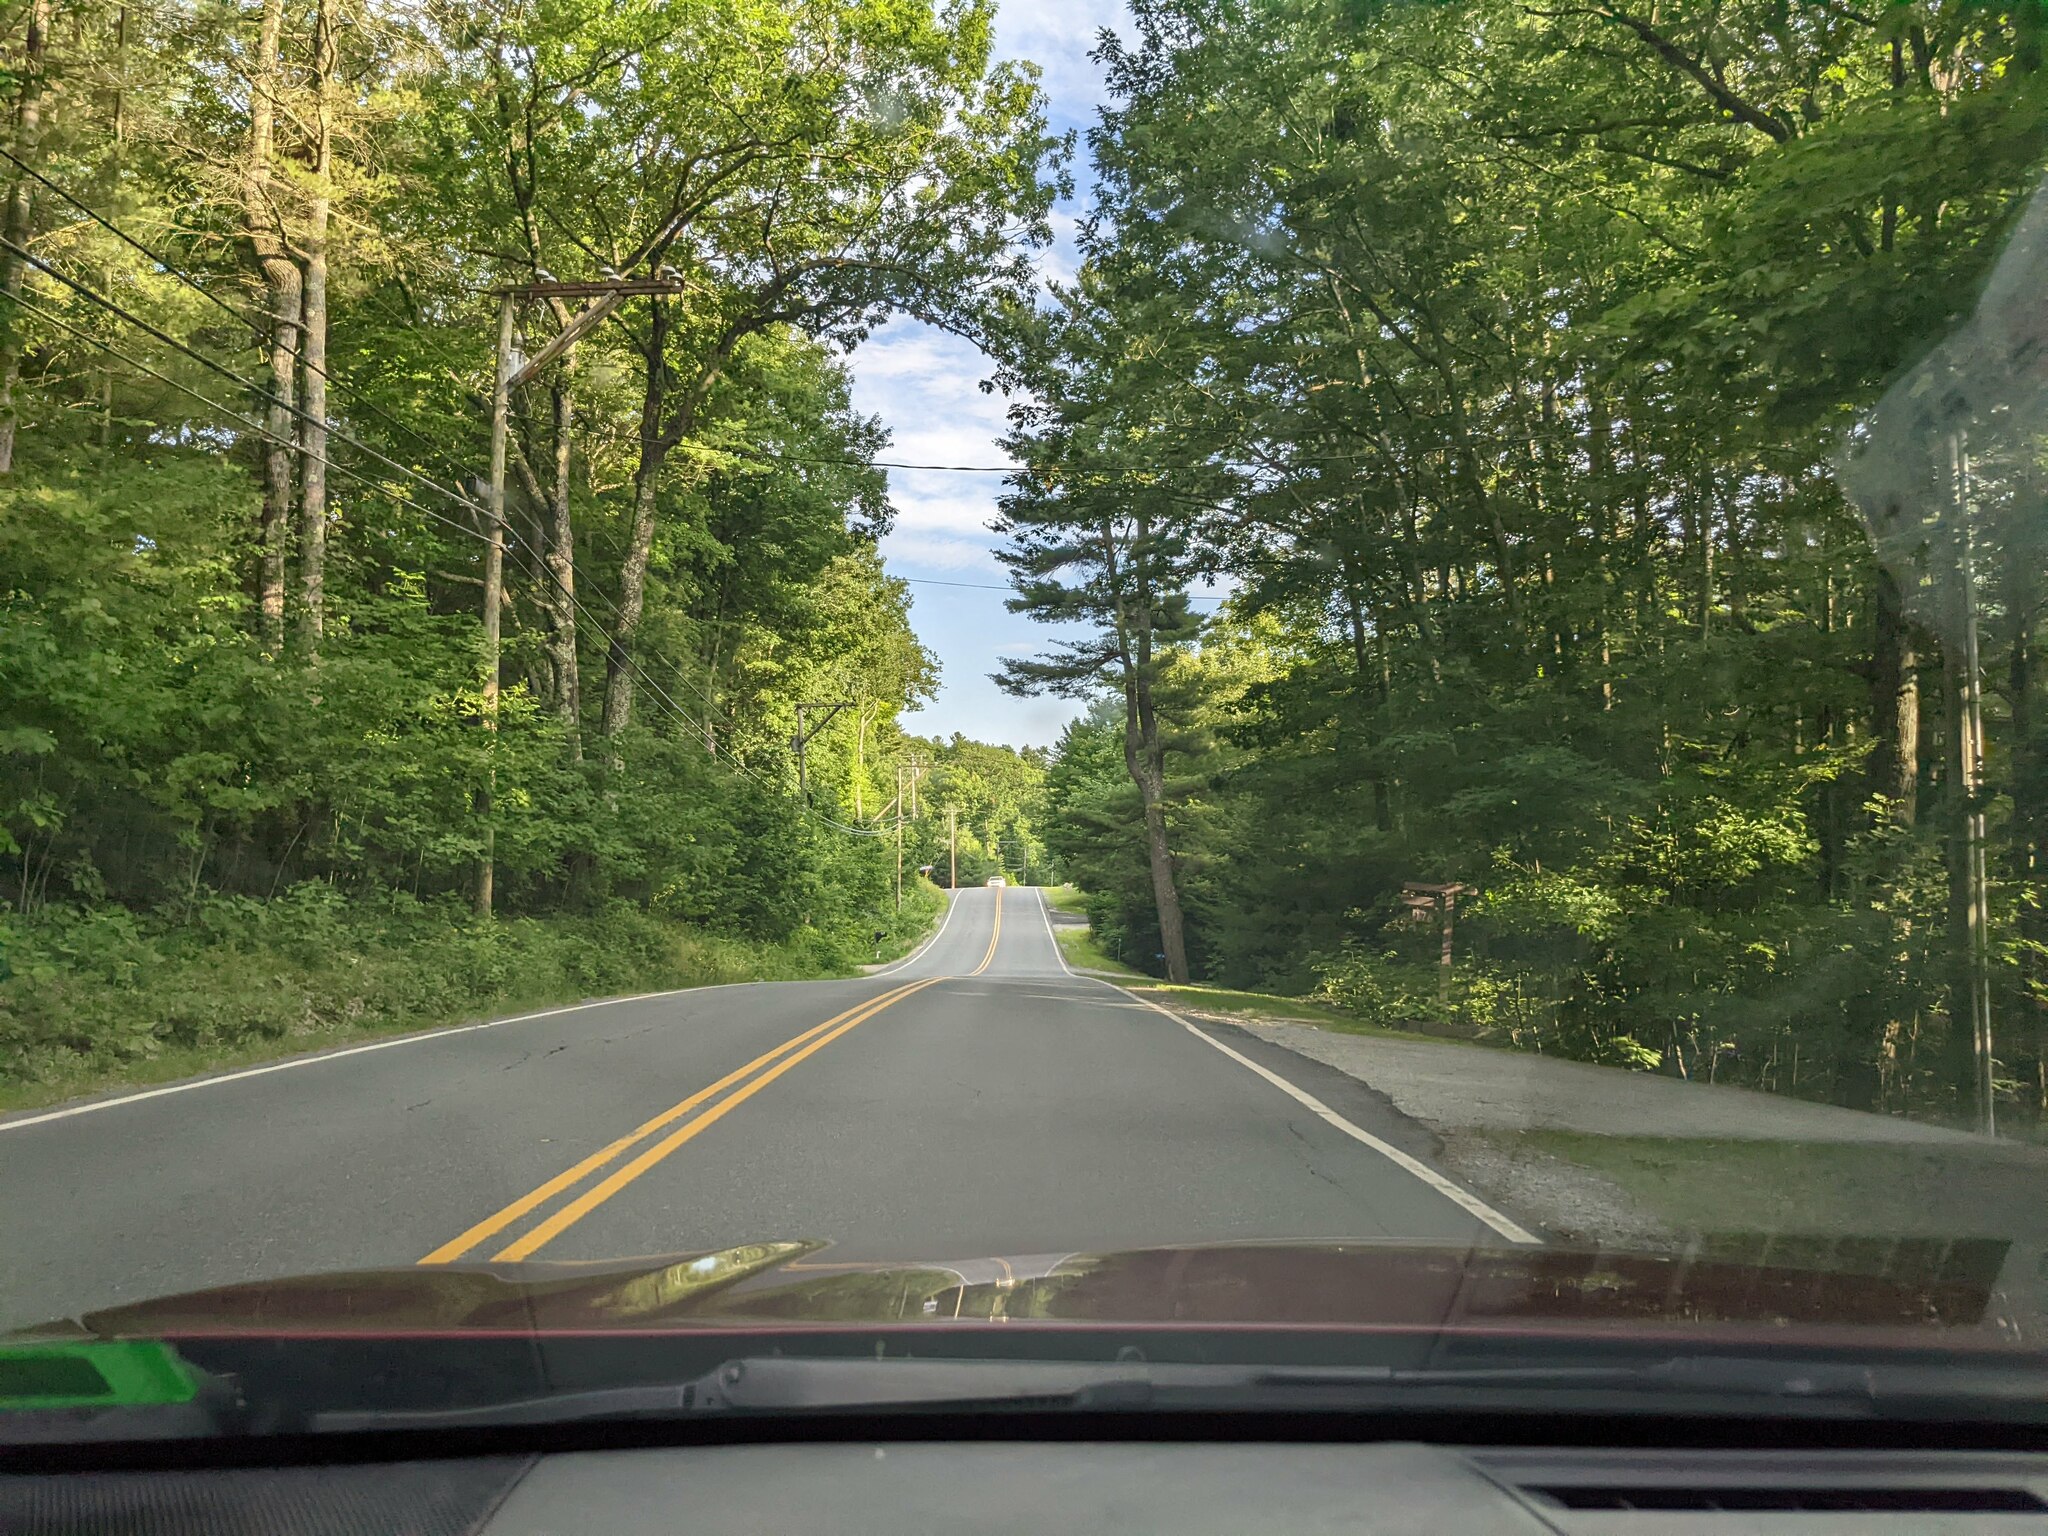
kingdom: Plantae
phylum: Tracheophyta
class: Pinopsida
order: Pinales
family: Pinaceae
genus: Pinus
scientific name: Pinus strobus
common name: Weymouth pine
